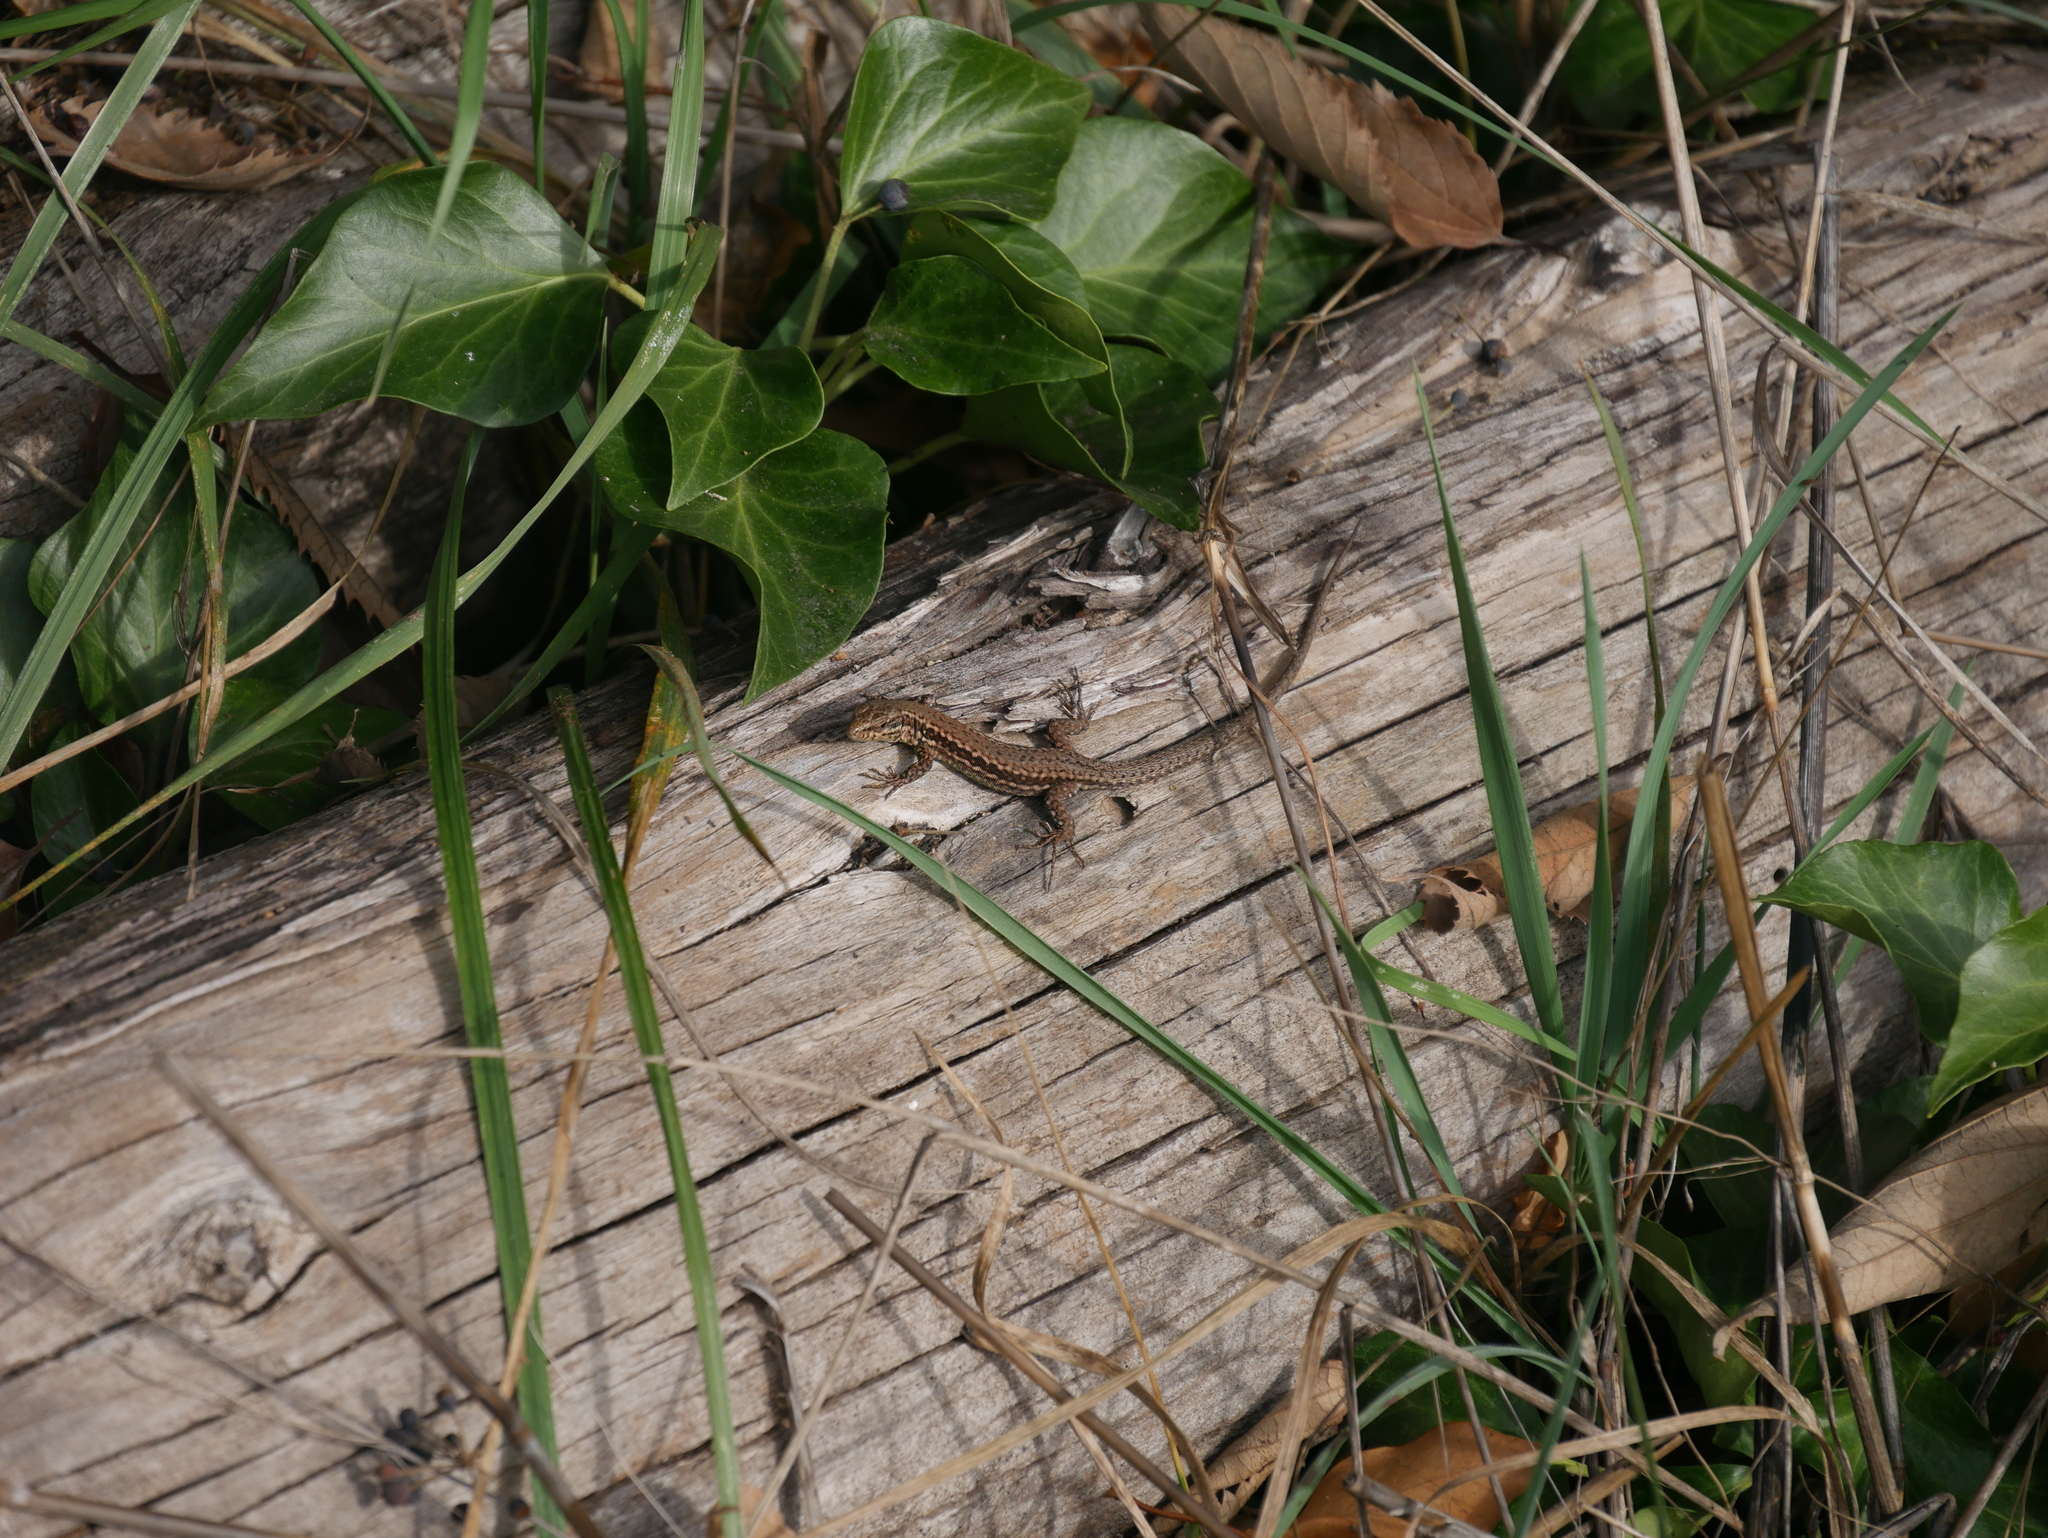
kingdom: Animalia
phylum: Chordata
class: Squamata
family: Lacertidae
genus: Podarcis
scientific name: Podarcis muralis
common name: Common wall lizard
